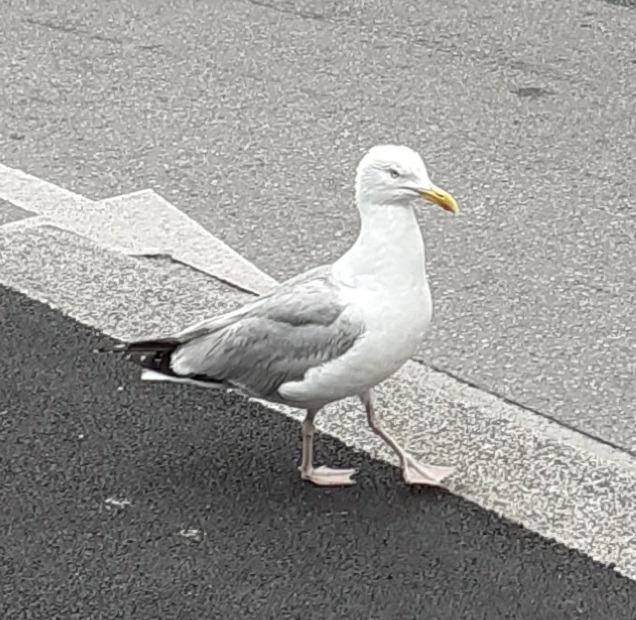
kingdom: Animalia
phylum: Chordata
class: Aves
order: Charadriiformes
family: Laridae
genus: Larus
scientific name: Larus argentatus
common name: Herring gull
